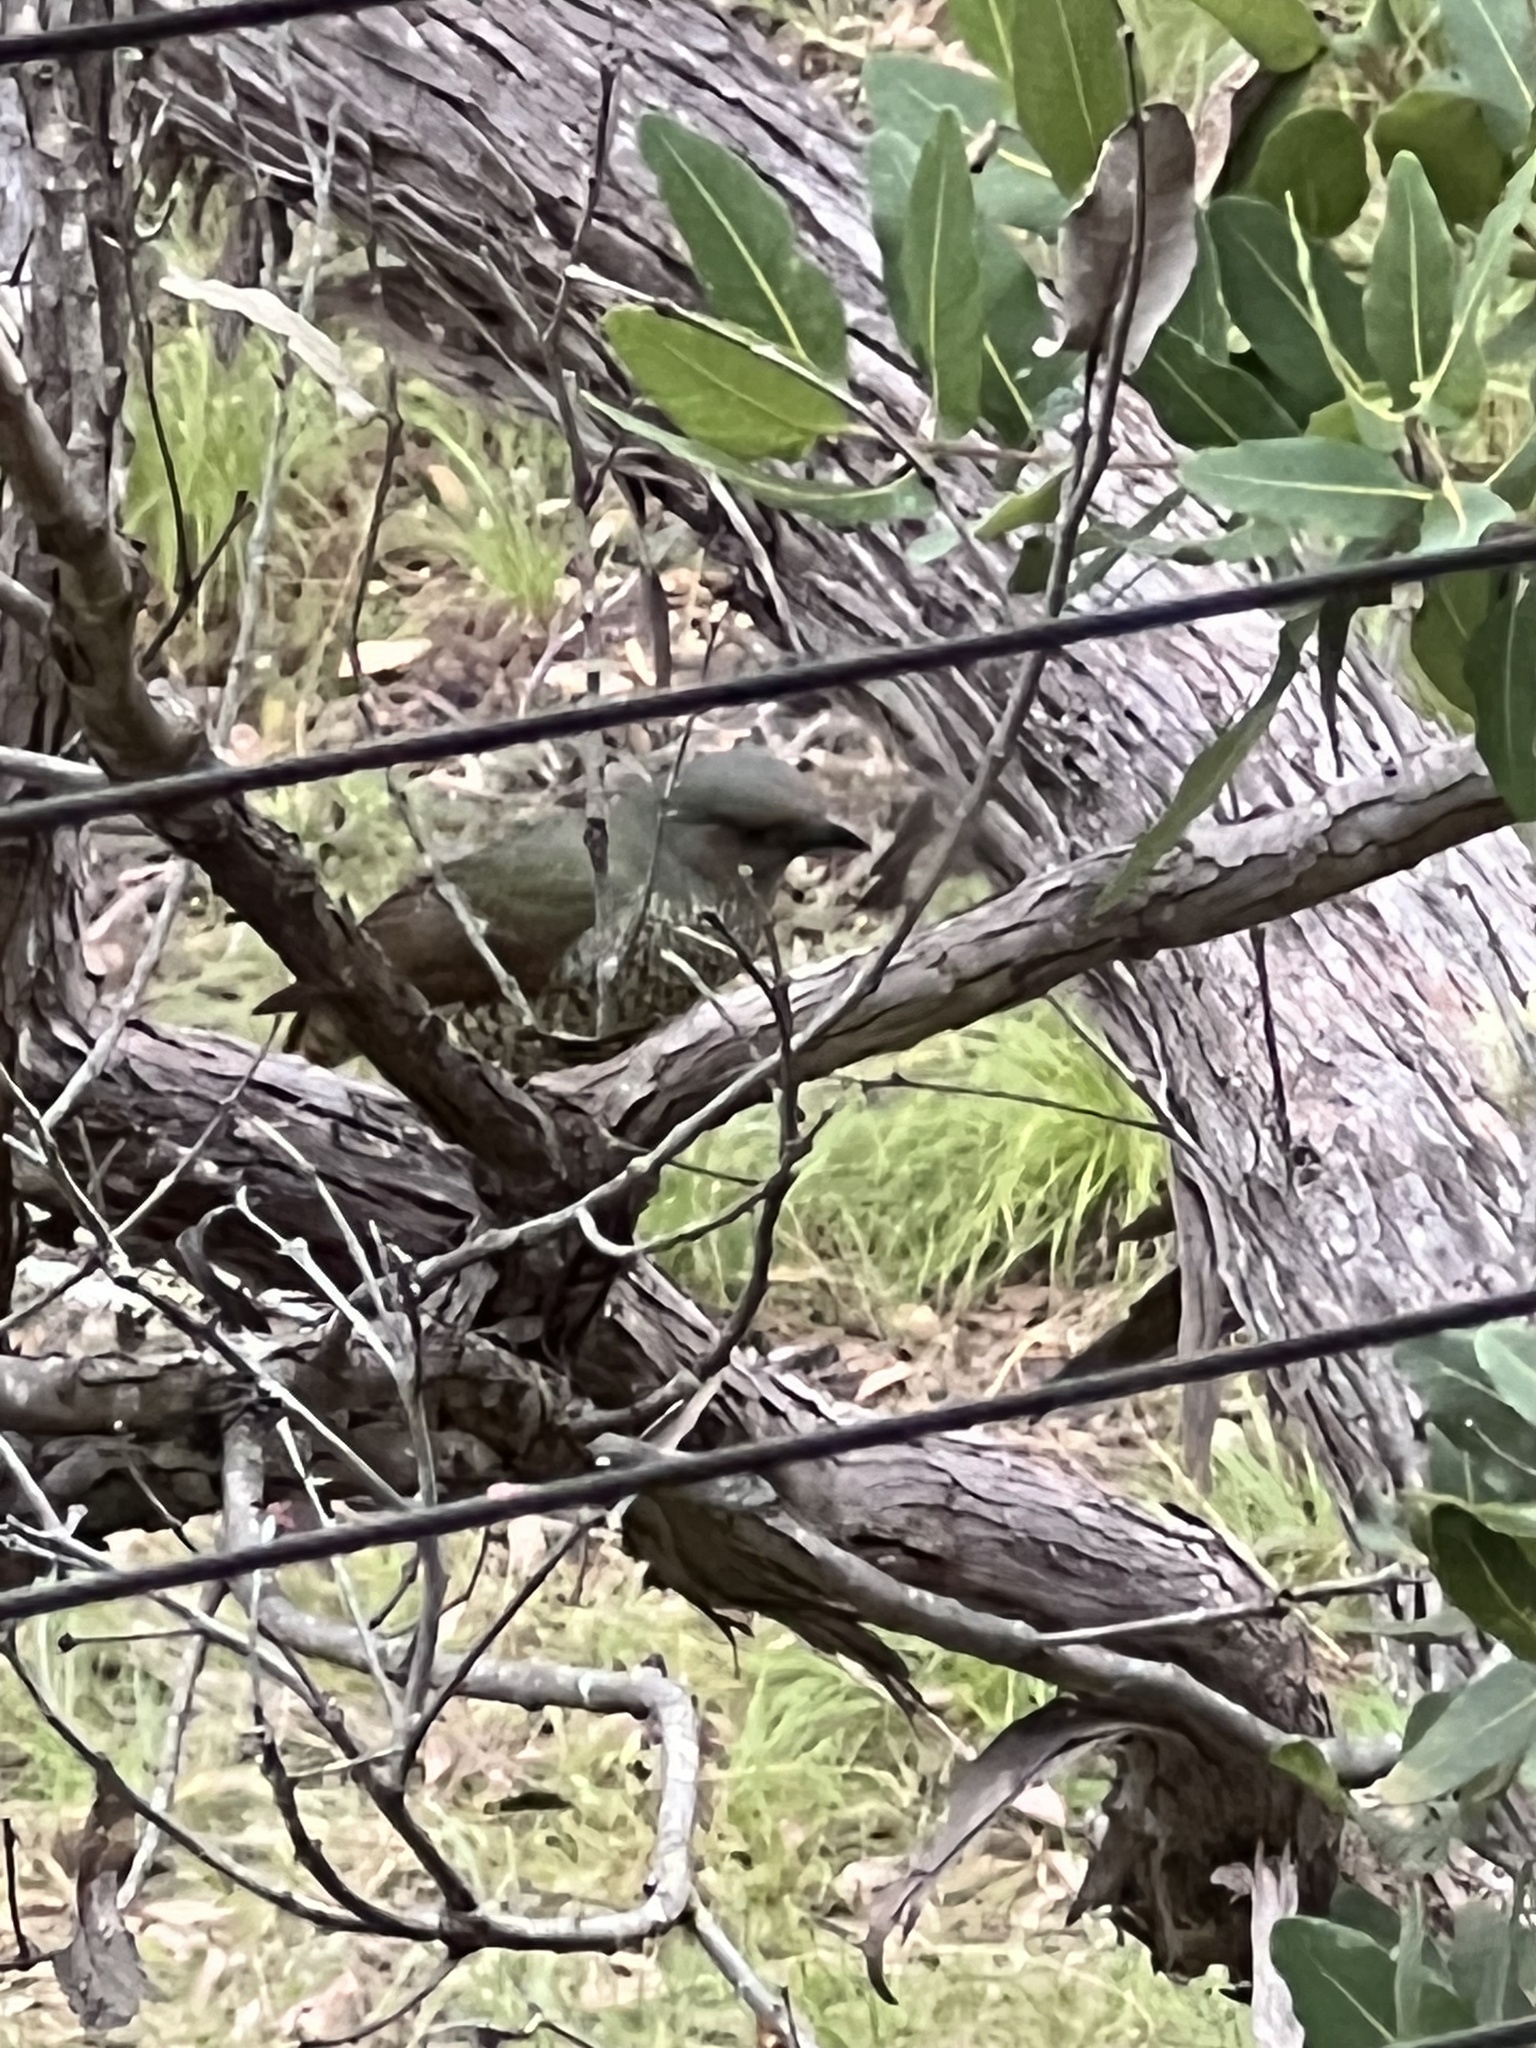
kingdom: Animalia
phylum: Chordata
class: Aves
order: Passeriformes
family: Ptilonorhynchidae
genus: Ptilonorhynchus
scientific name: Ptilonorhynchus violaceus
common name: Satin bowerbird
